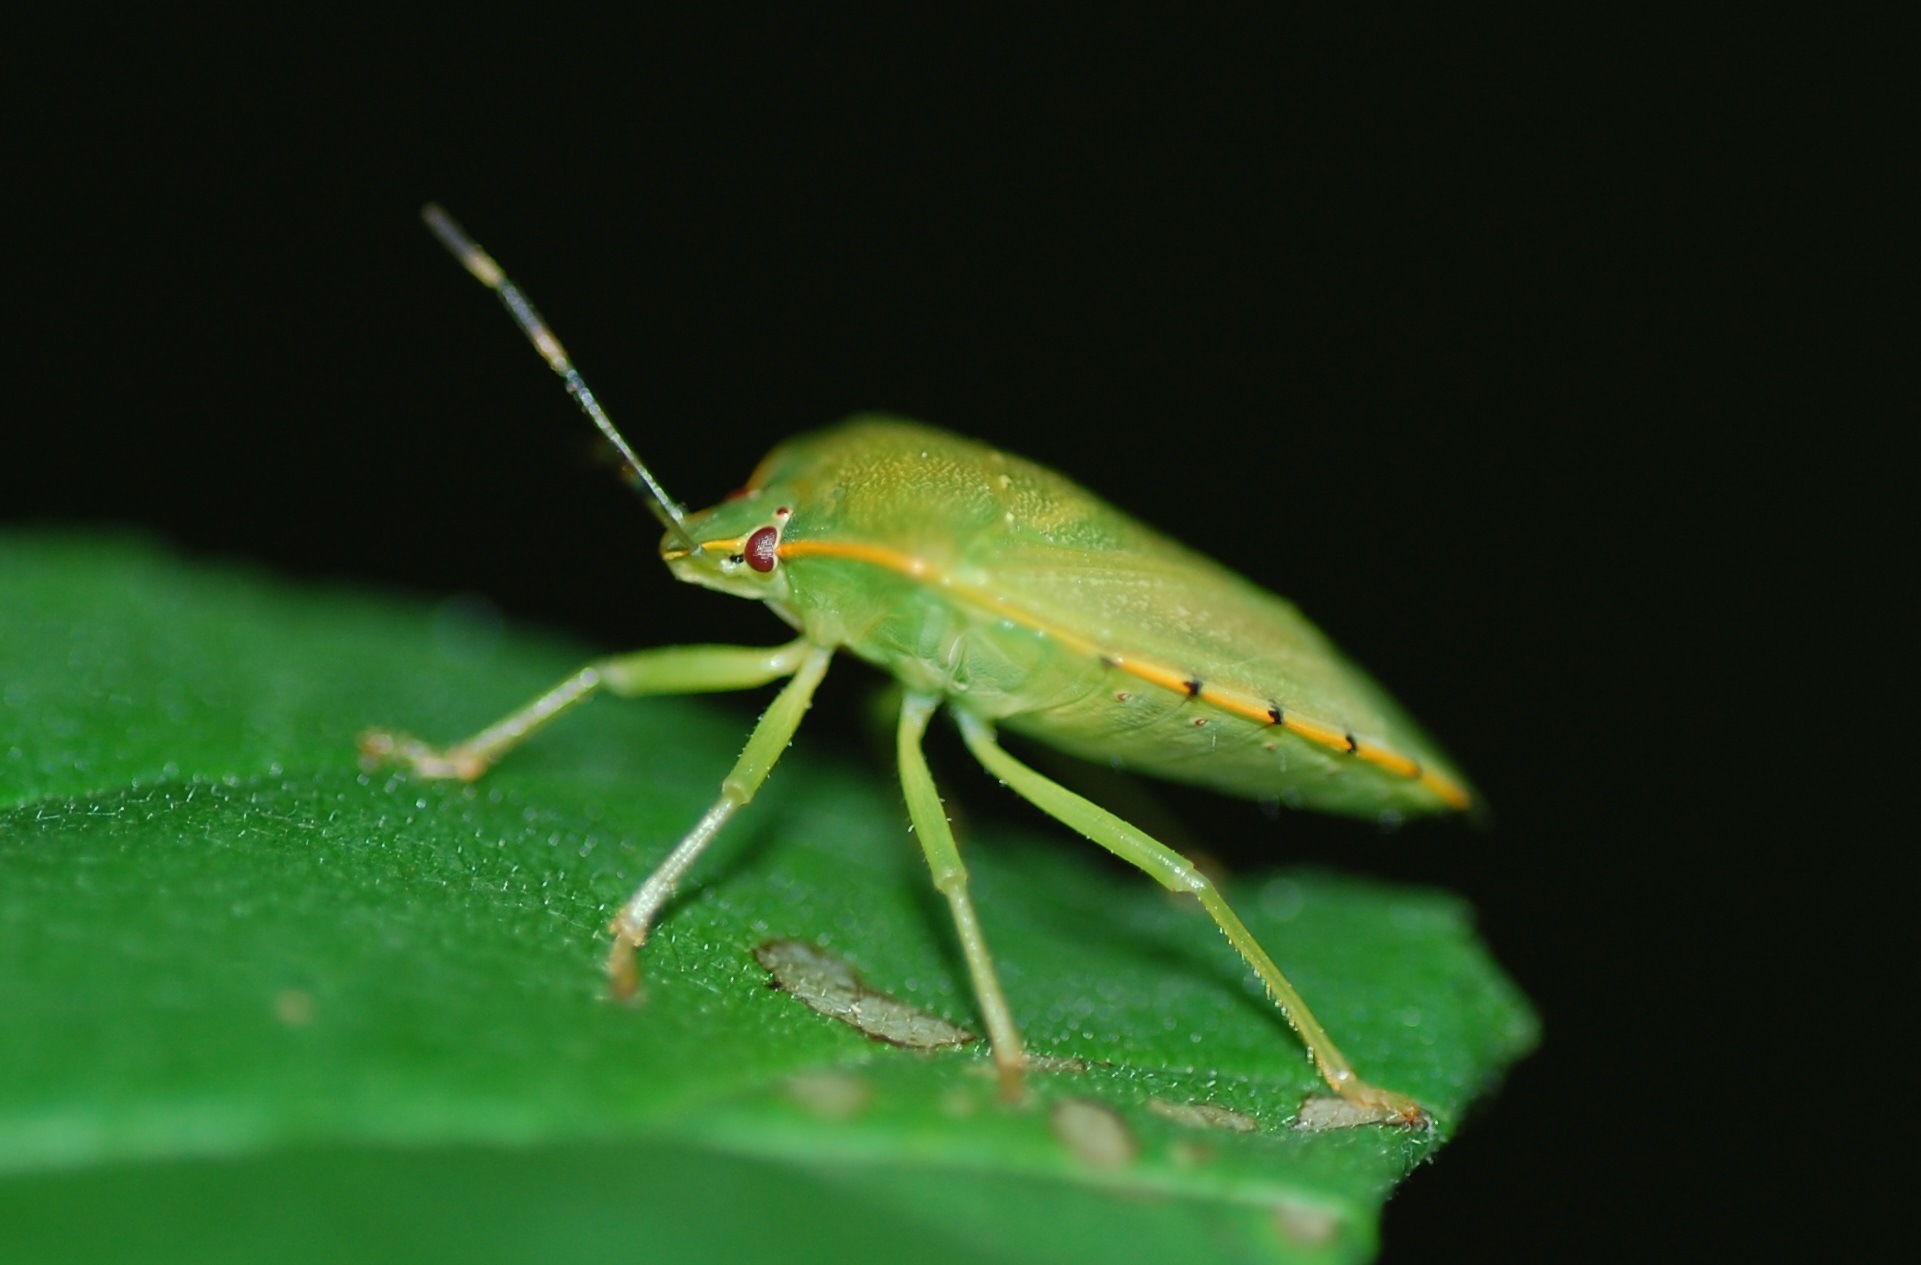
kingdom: Animalia
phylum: Arthropoda
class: Insecta
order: Hemiptera
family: Pentatomidae
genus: Chinavia
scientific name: Chinavia hilaris
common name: Green stink bug
